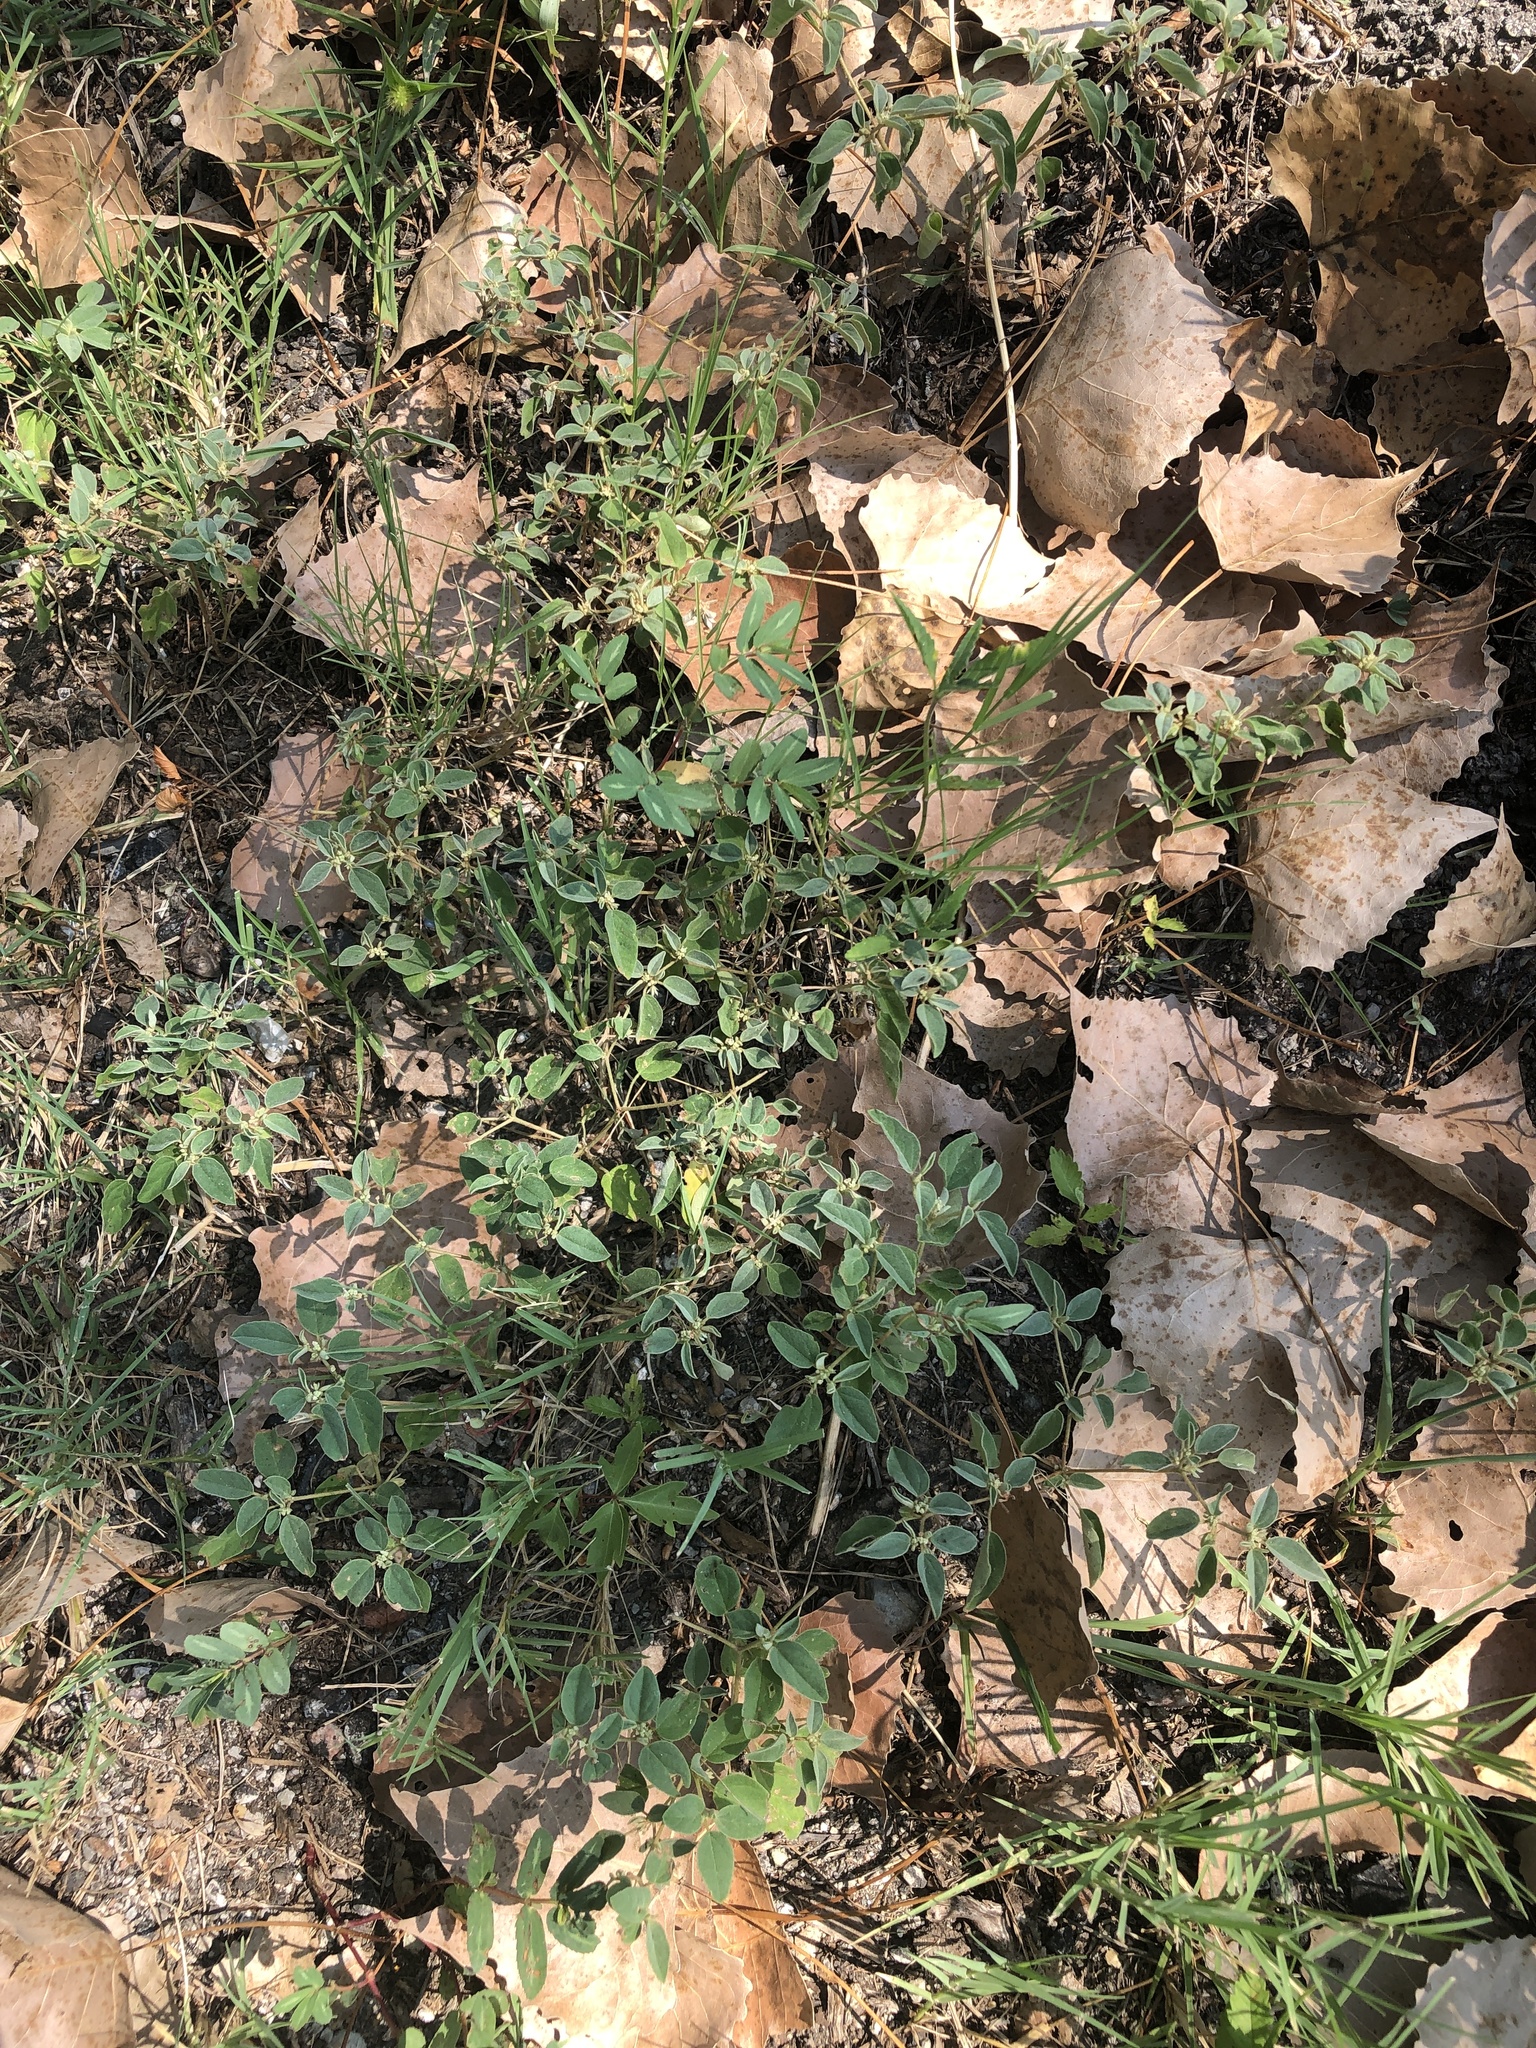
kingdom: Plantae
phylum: Tracheophyta
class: Magnoliopsida
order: Malpighiales
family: Euphorbiaceae
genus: Croton
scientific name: Croton monanthogynus
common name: One-seed croton
